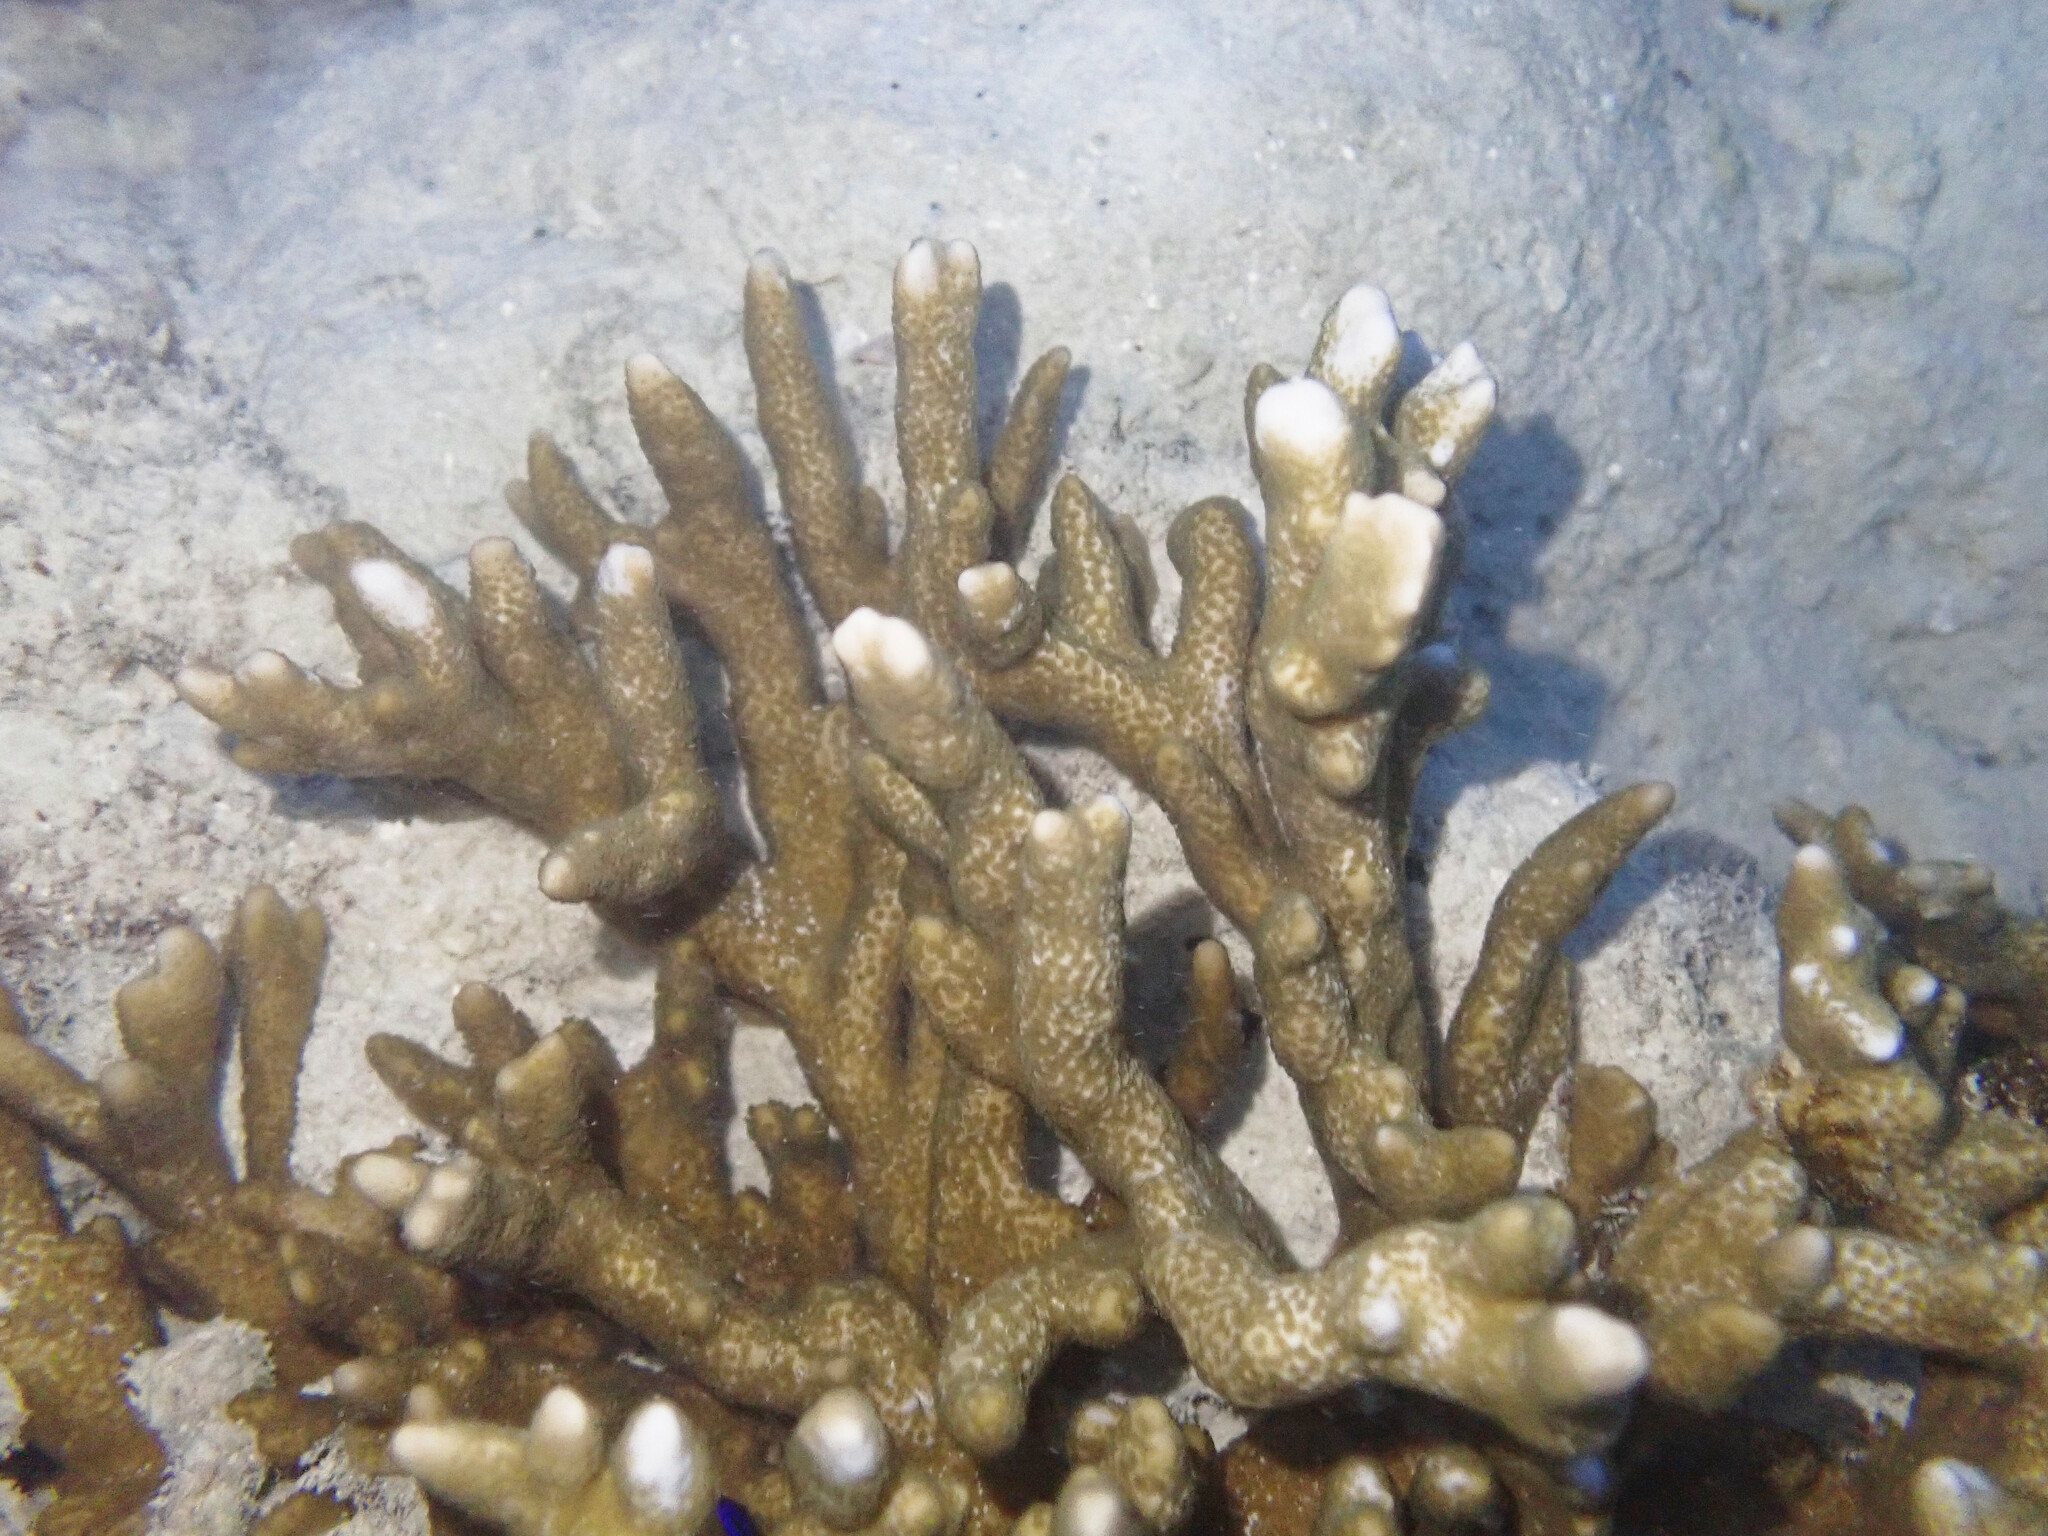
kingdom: Animalia
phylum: Cnidaria
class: Anthozoa
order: Scleractinia
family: Acroporidae
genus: Montipora
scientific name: Montipora digitata
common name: Pore coral
